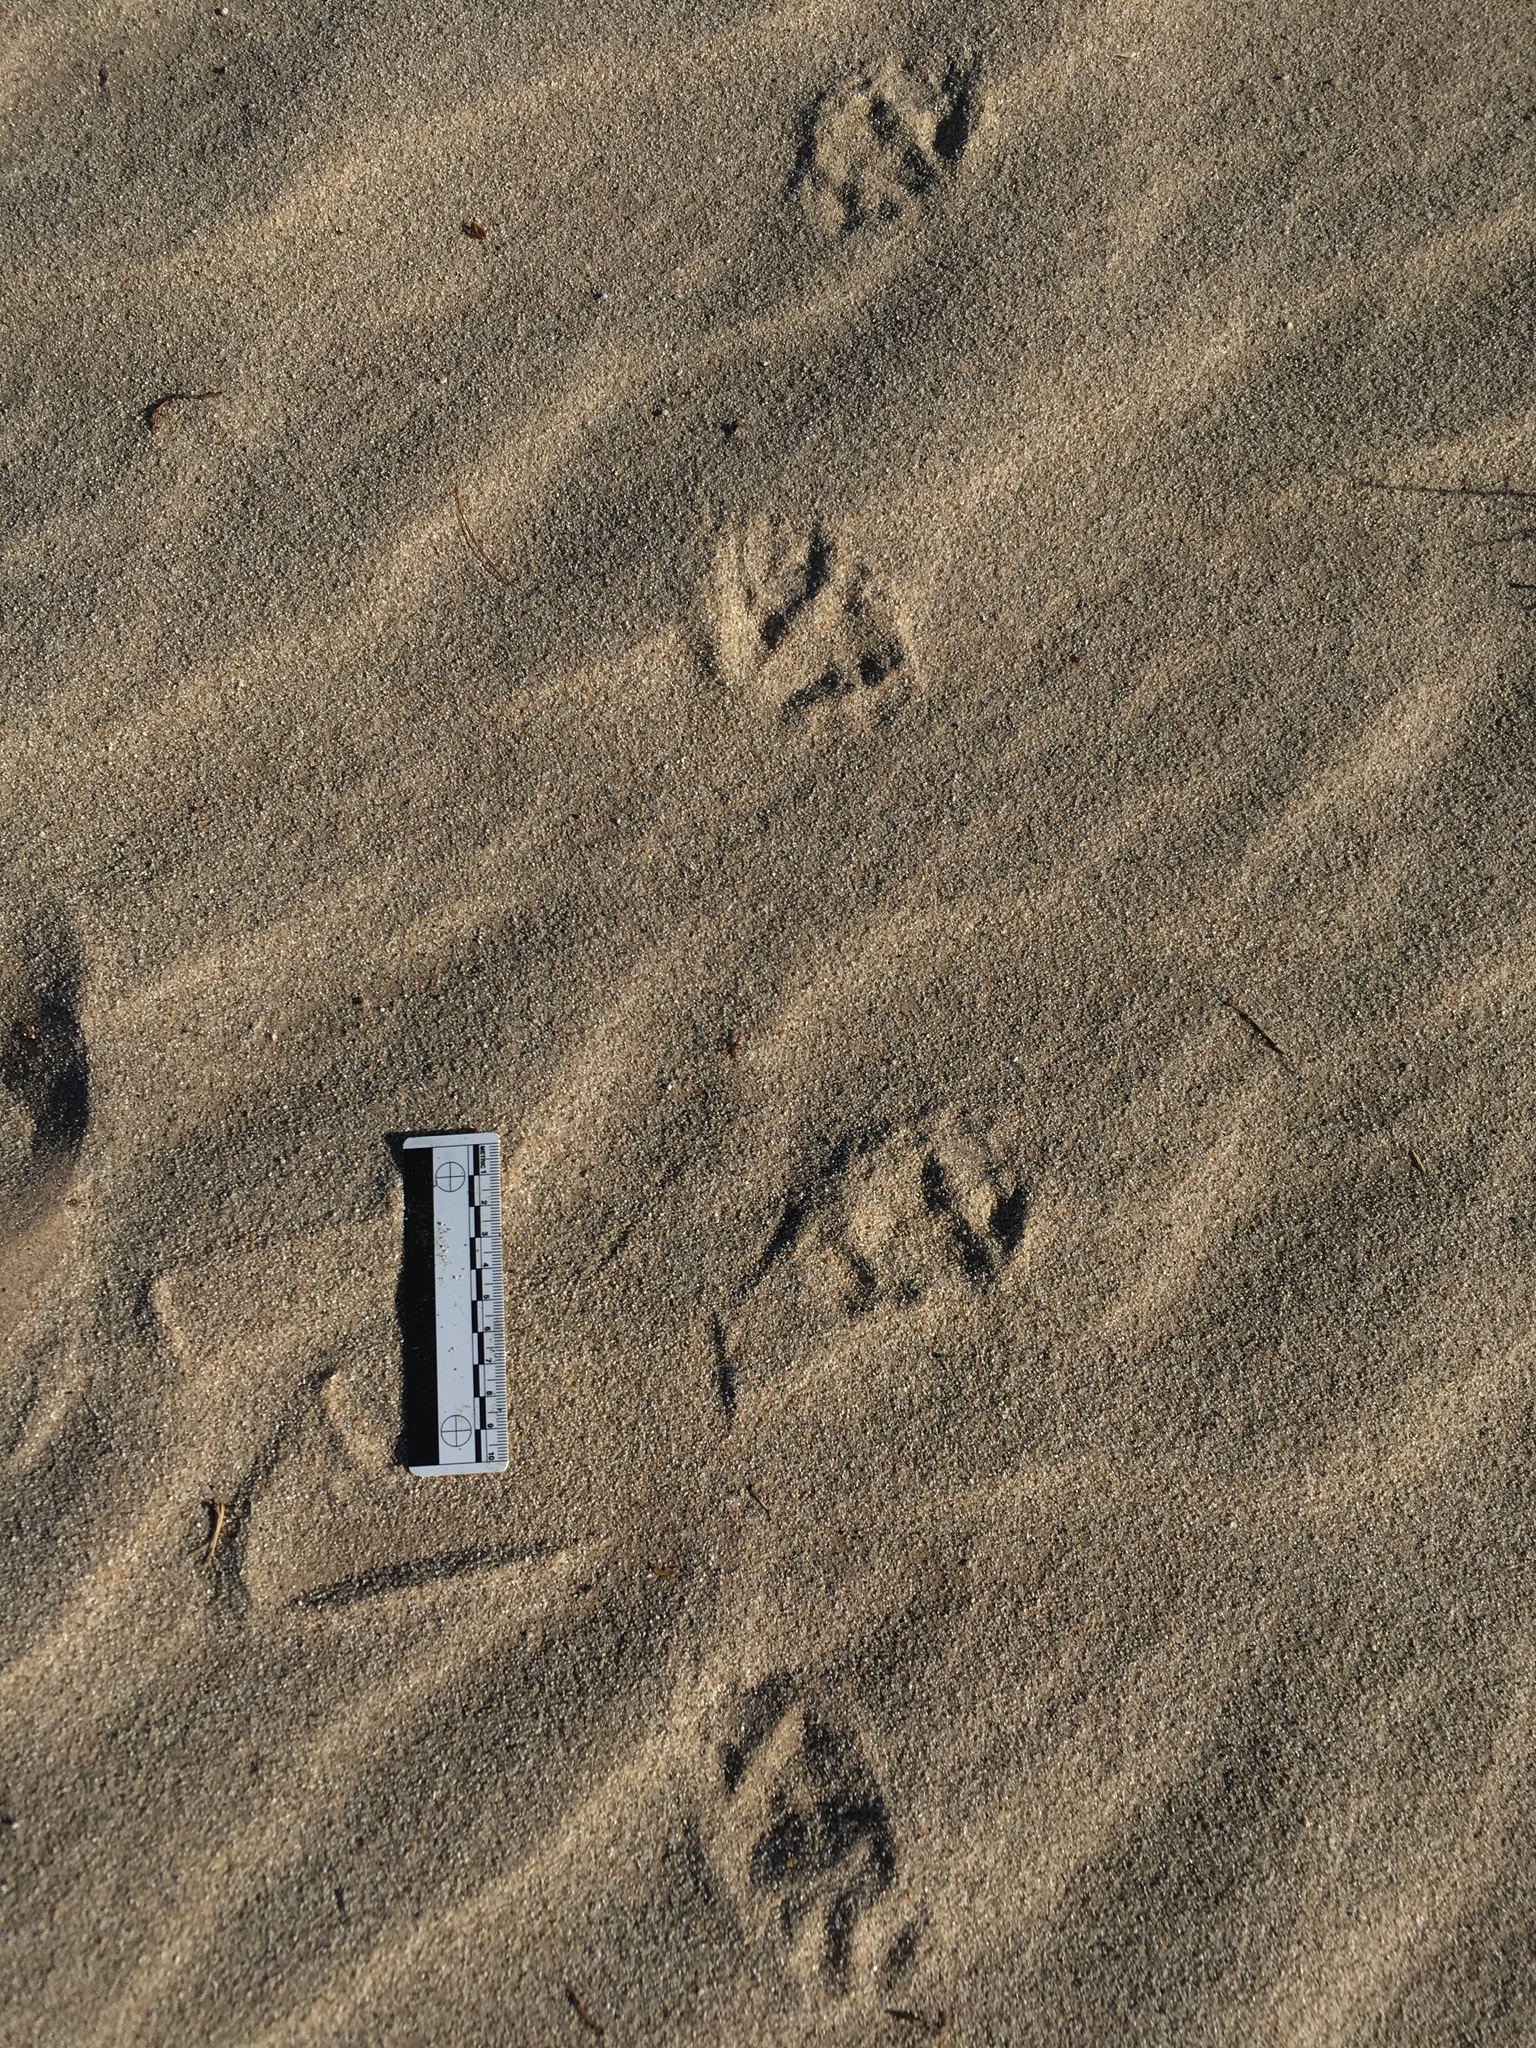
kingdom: Animalia
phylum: Chordata
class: Mammalia
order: Carnivora
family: Mustelidae
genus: Taxidea
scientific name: Taxidea taxus
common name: American badger
